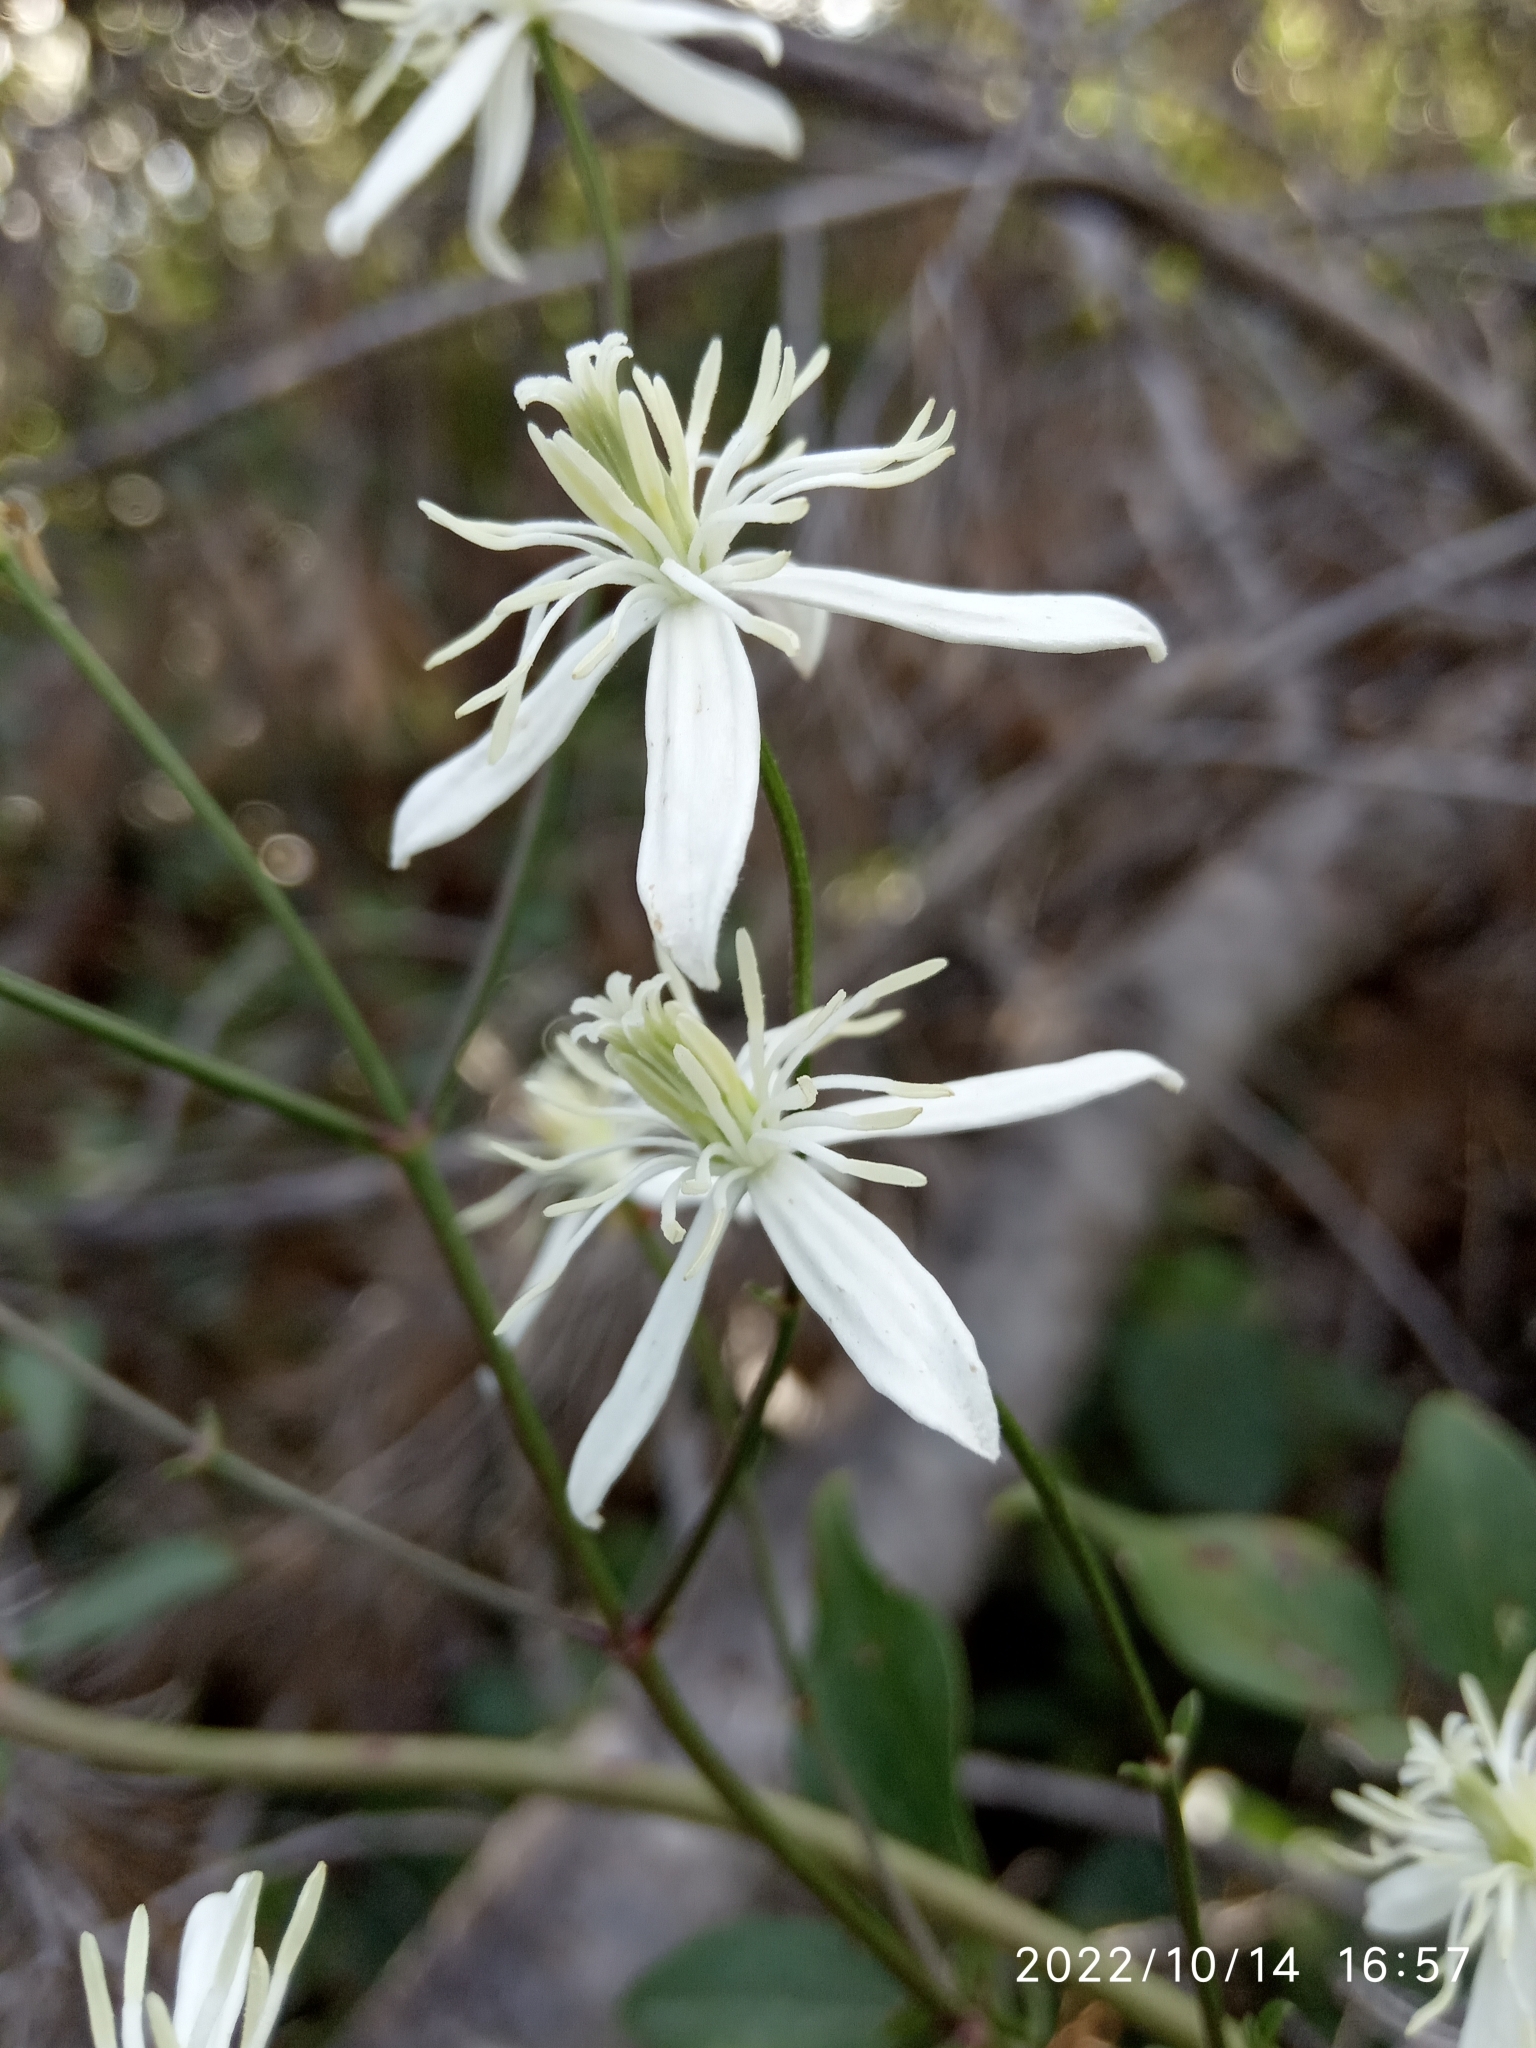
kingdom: Plantae
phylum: Tracheophyta
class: Magnoliopsida
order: Ranunculales
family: Ranunculaceae
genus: Clematis
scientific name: Clematis flammula
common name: Virgin's-bower
